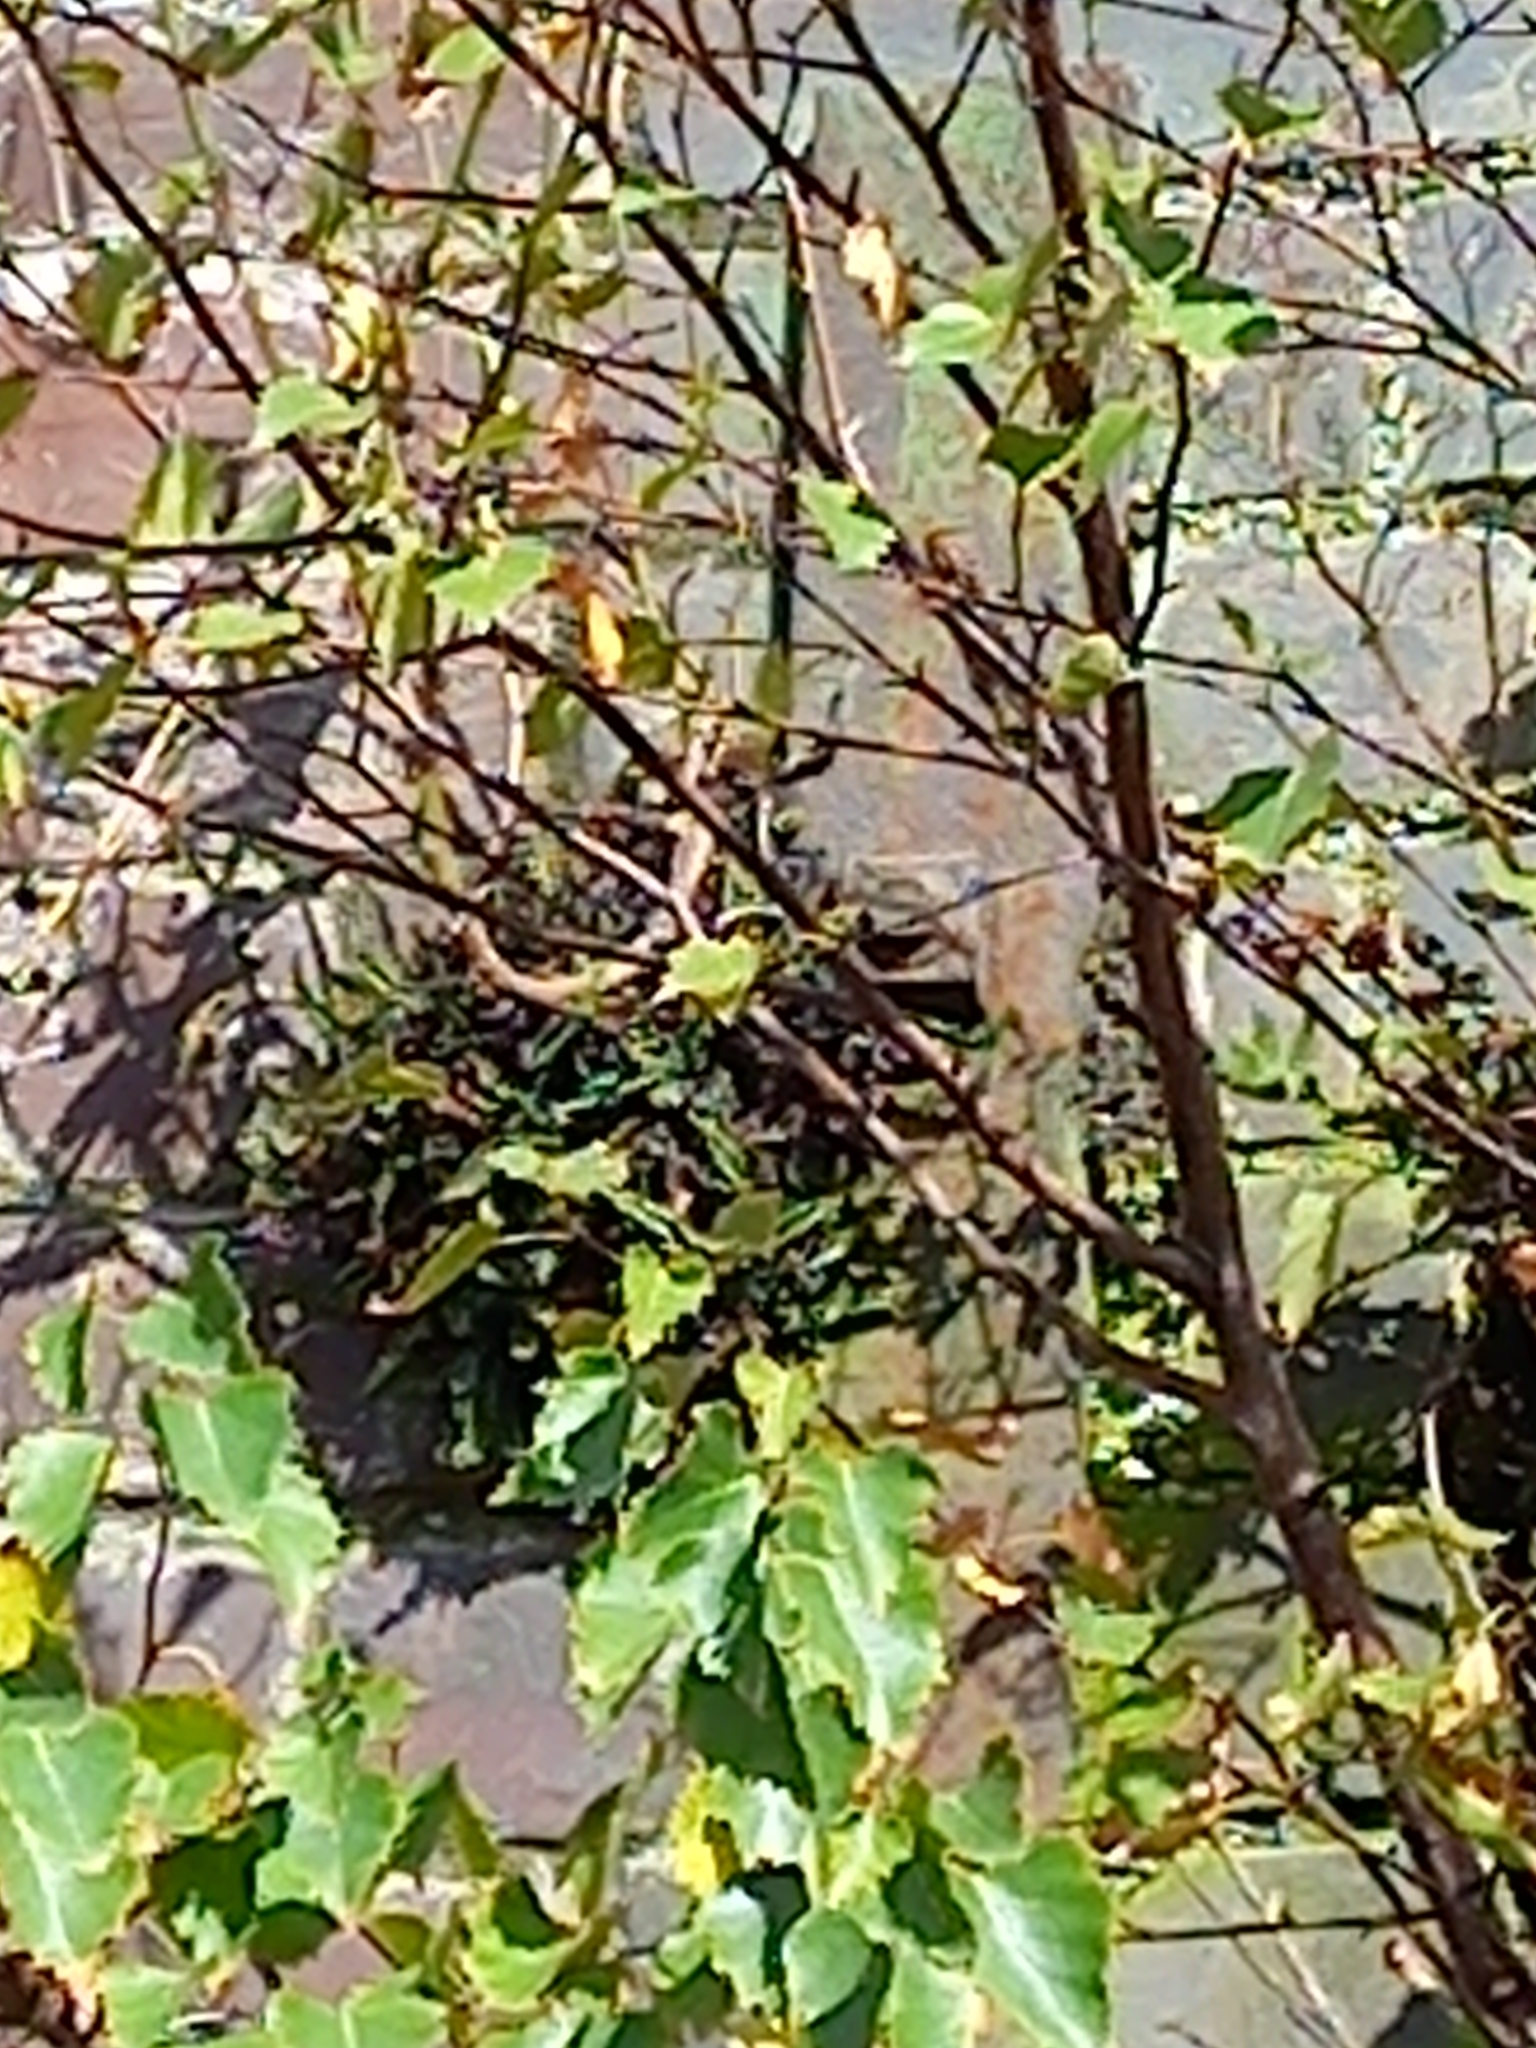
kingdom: Plantae
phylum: Tracheophyta
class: Polypodiopsida
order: Polypodiales
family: Blechnaceae
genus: Austroblechnum
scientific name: Austroblechnum penna-marina
